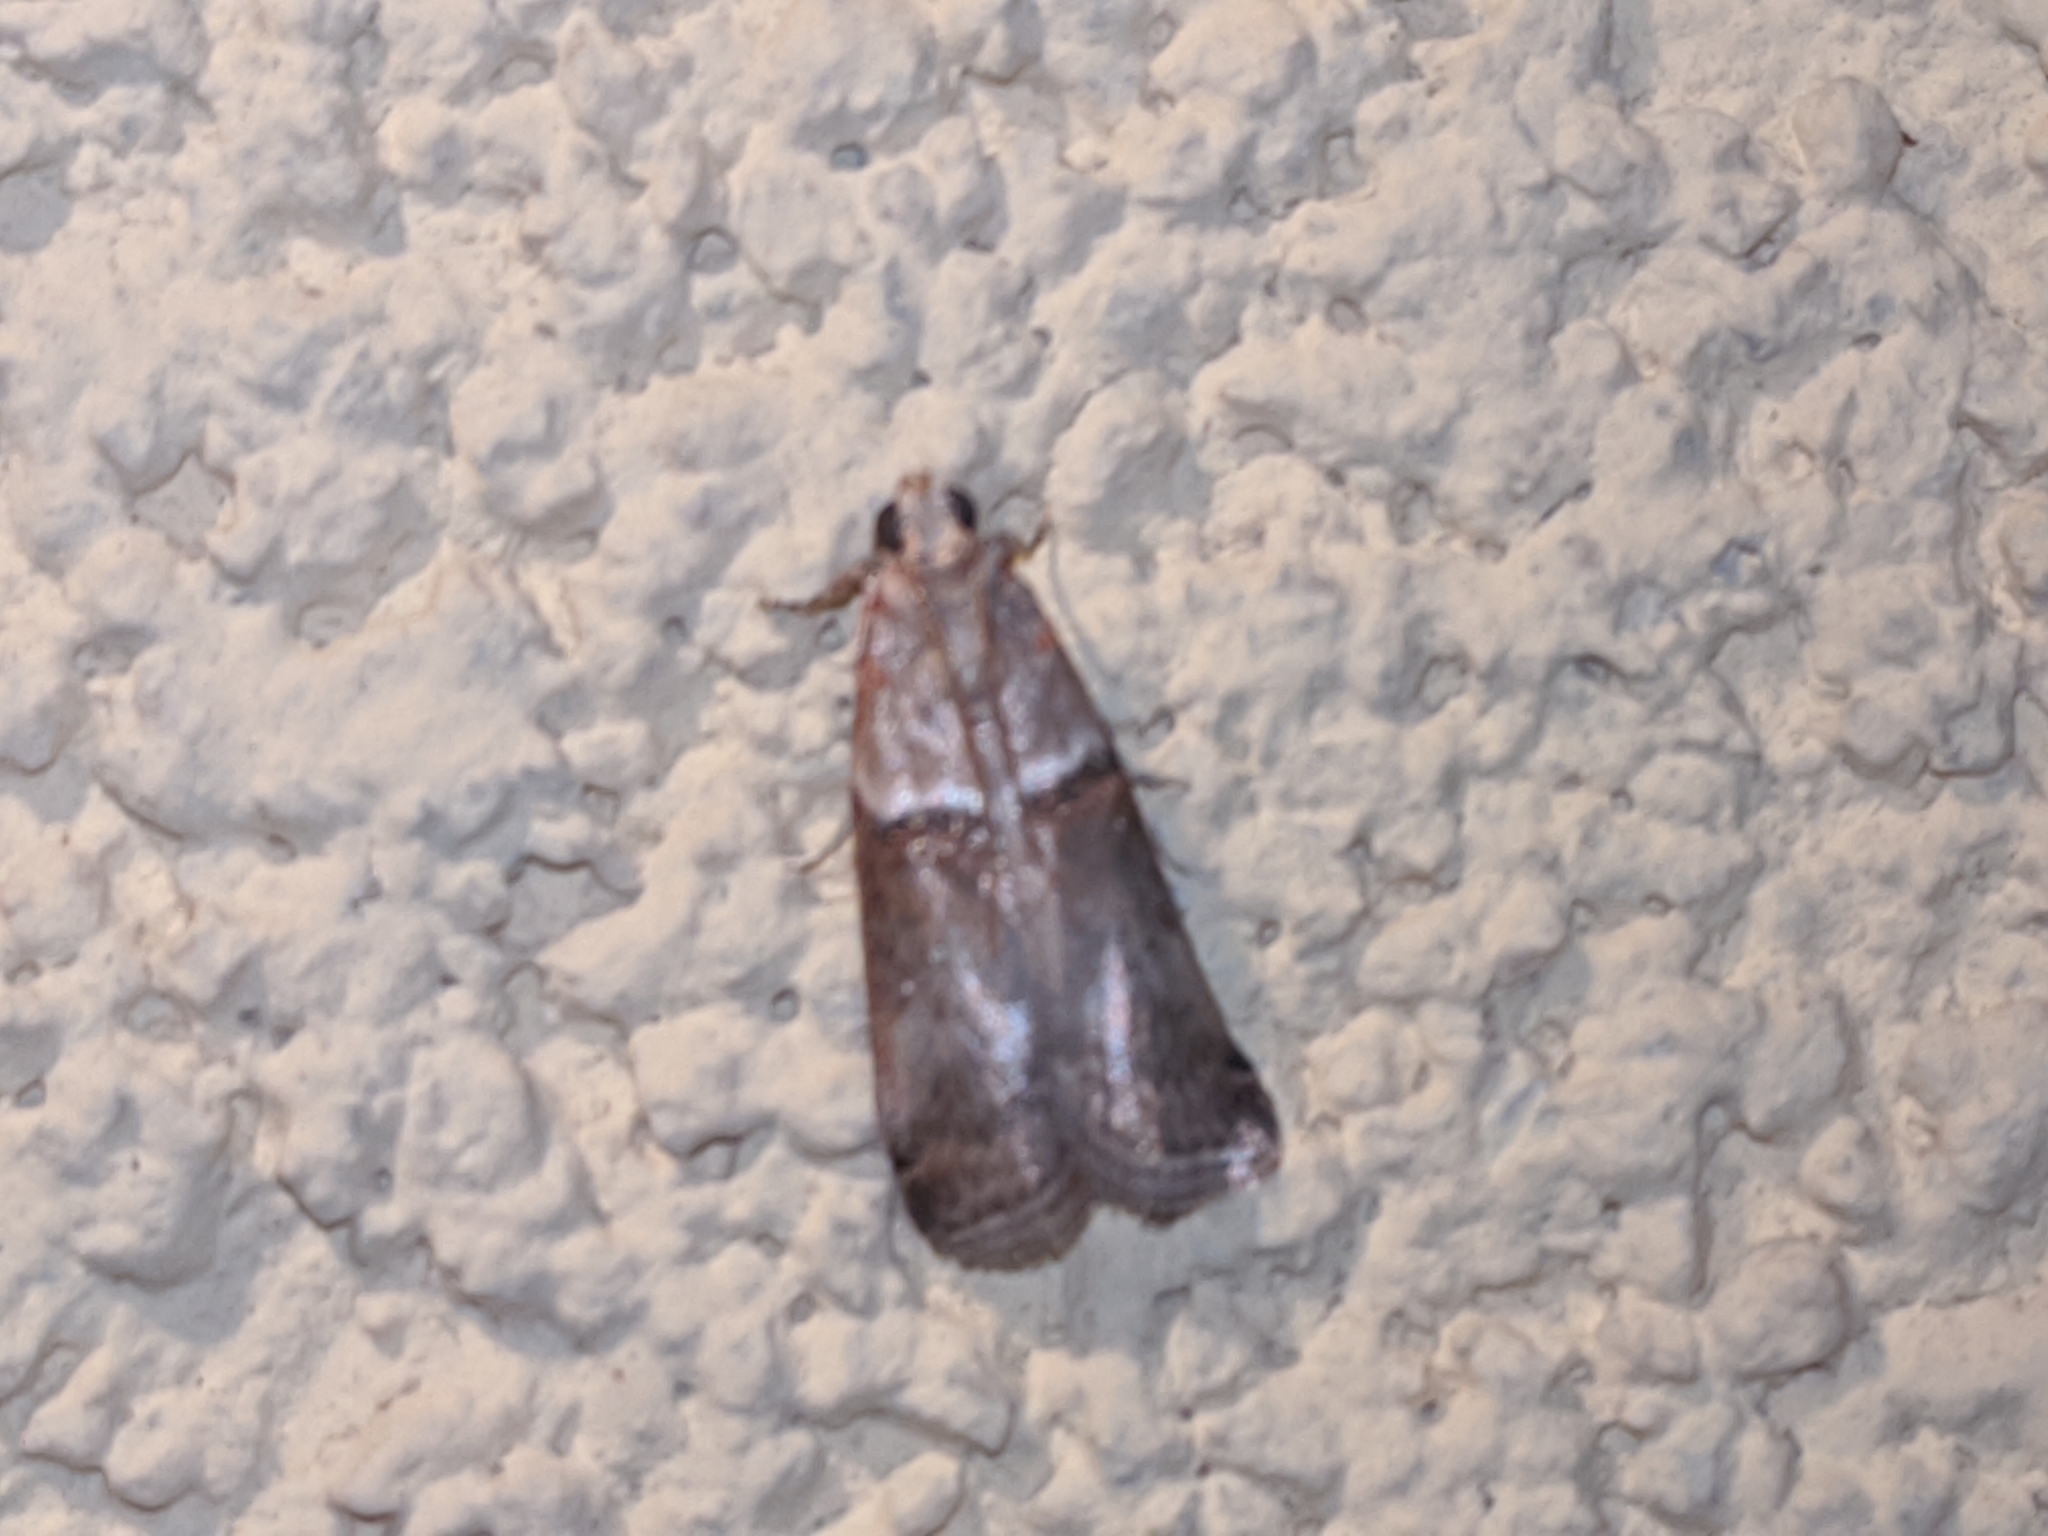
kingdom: Animalia
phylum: Arthropoda
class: Insecta
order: Lepidoptera
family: Pyralidae
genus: Acrobasis
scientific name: Acrobasis tumidana
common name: Scarce oak knot-horn
